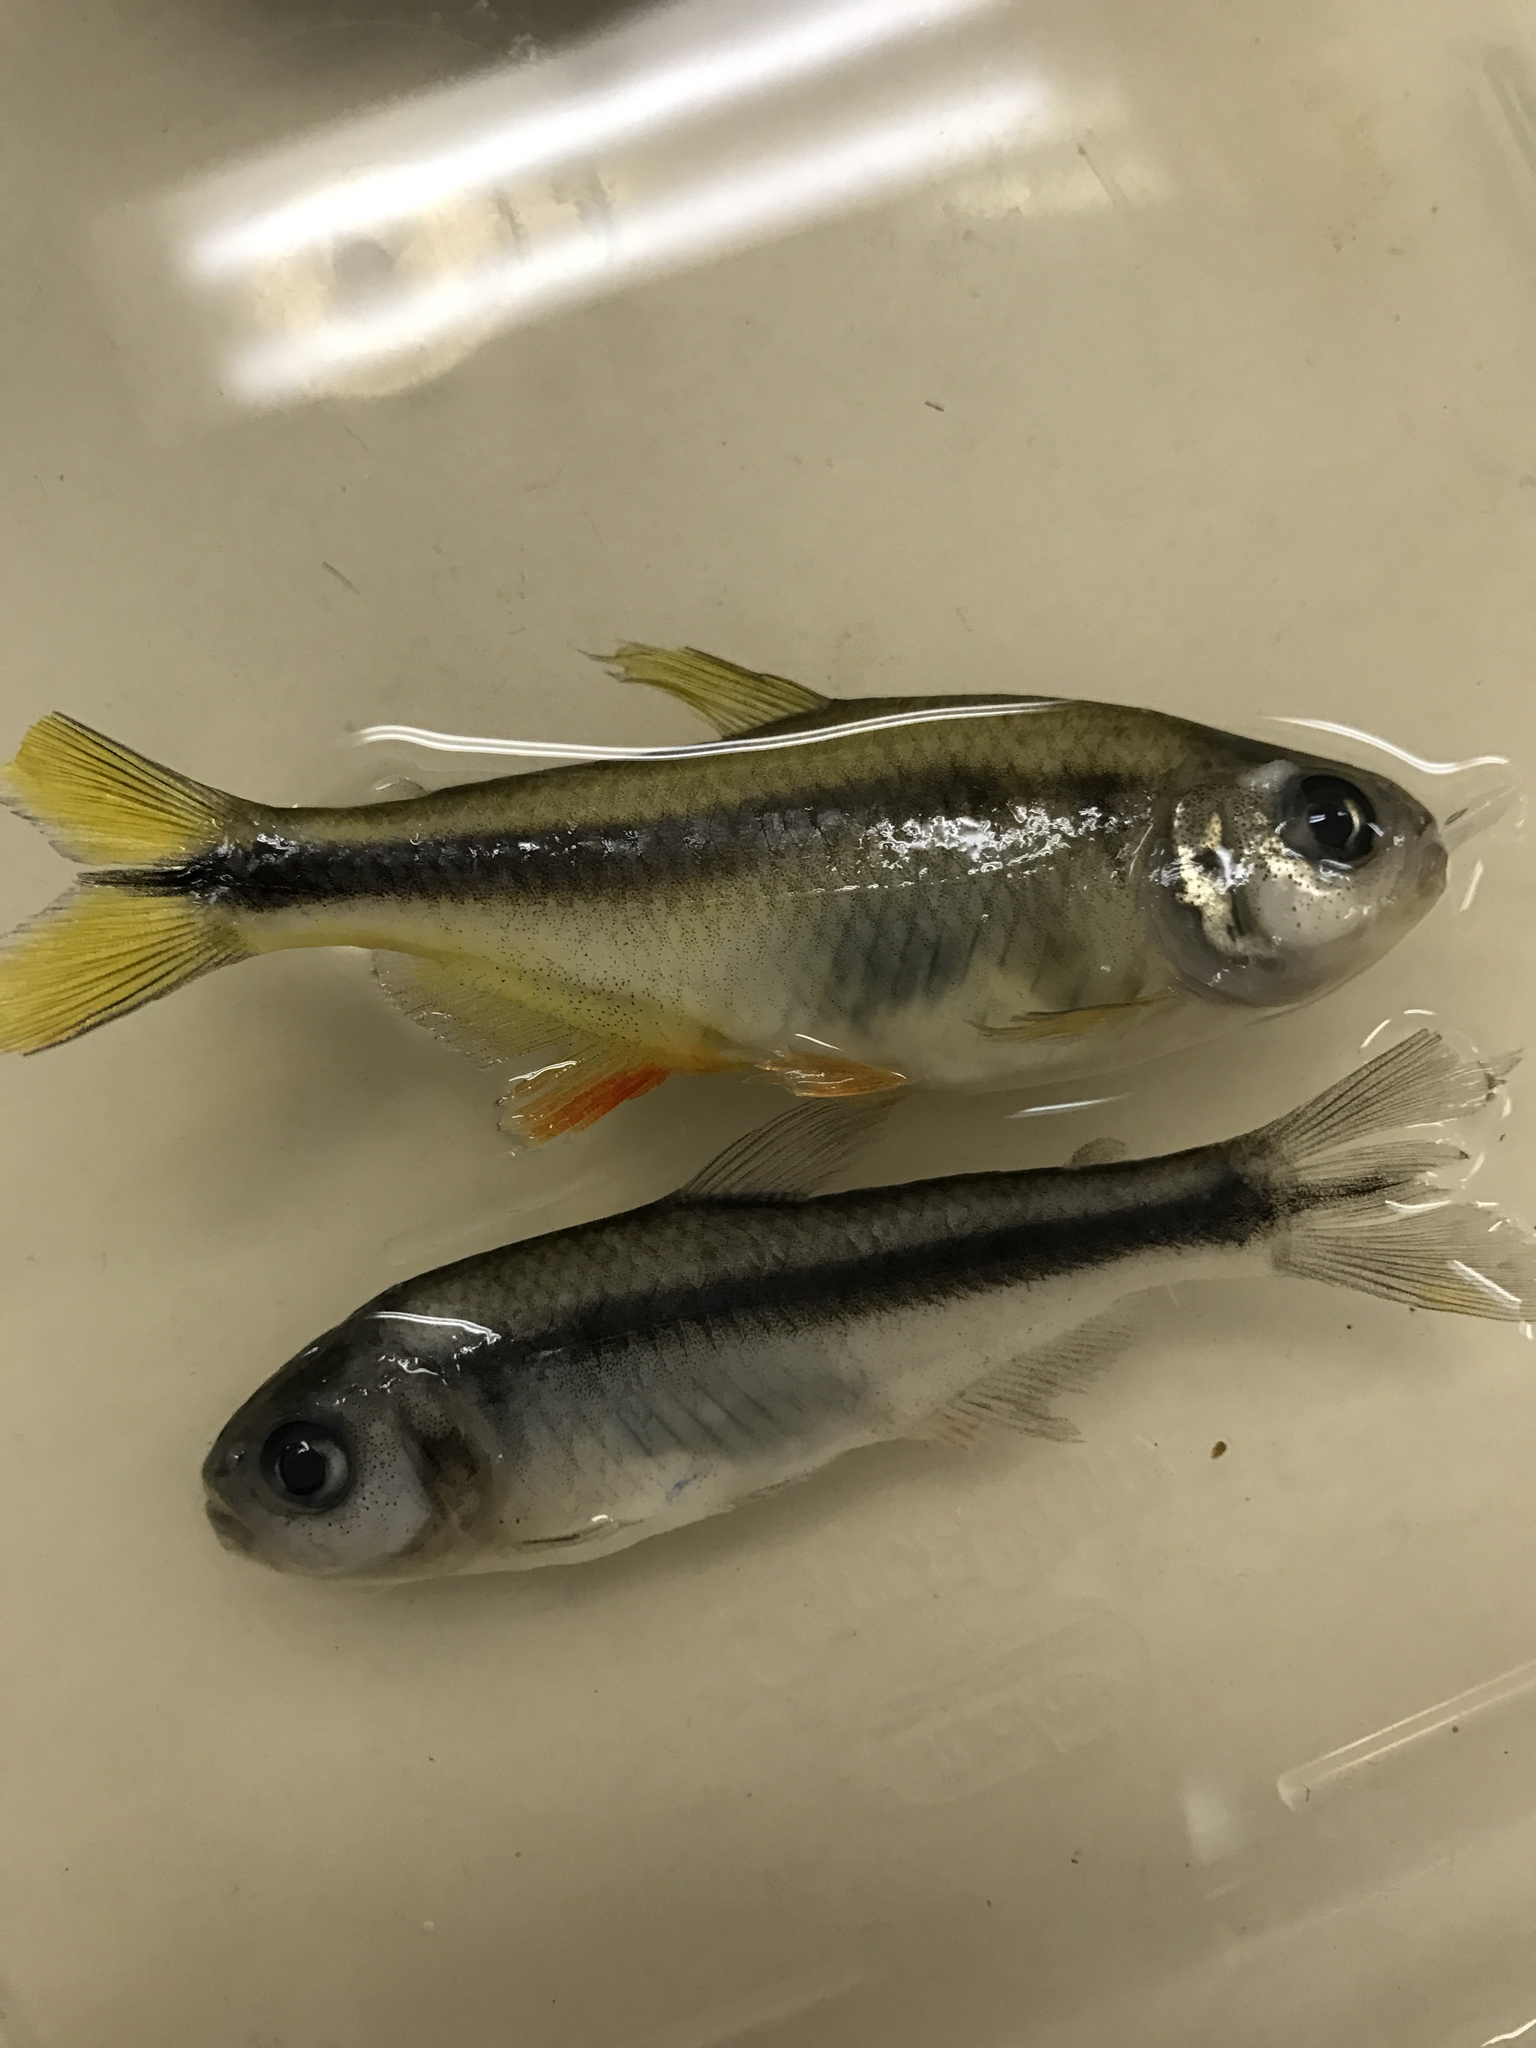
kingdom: Animalia
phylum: Chordata
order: Characiformes
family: Characidae
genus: Astyanax
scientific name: Astyanax mexicanus
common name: Mexican tetra
